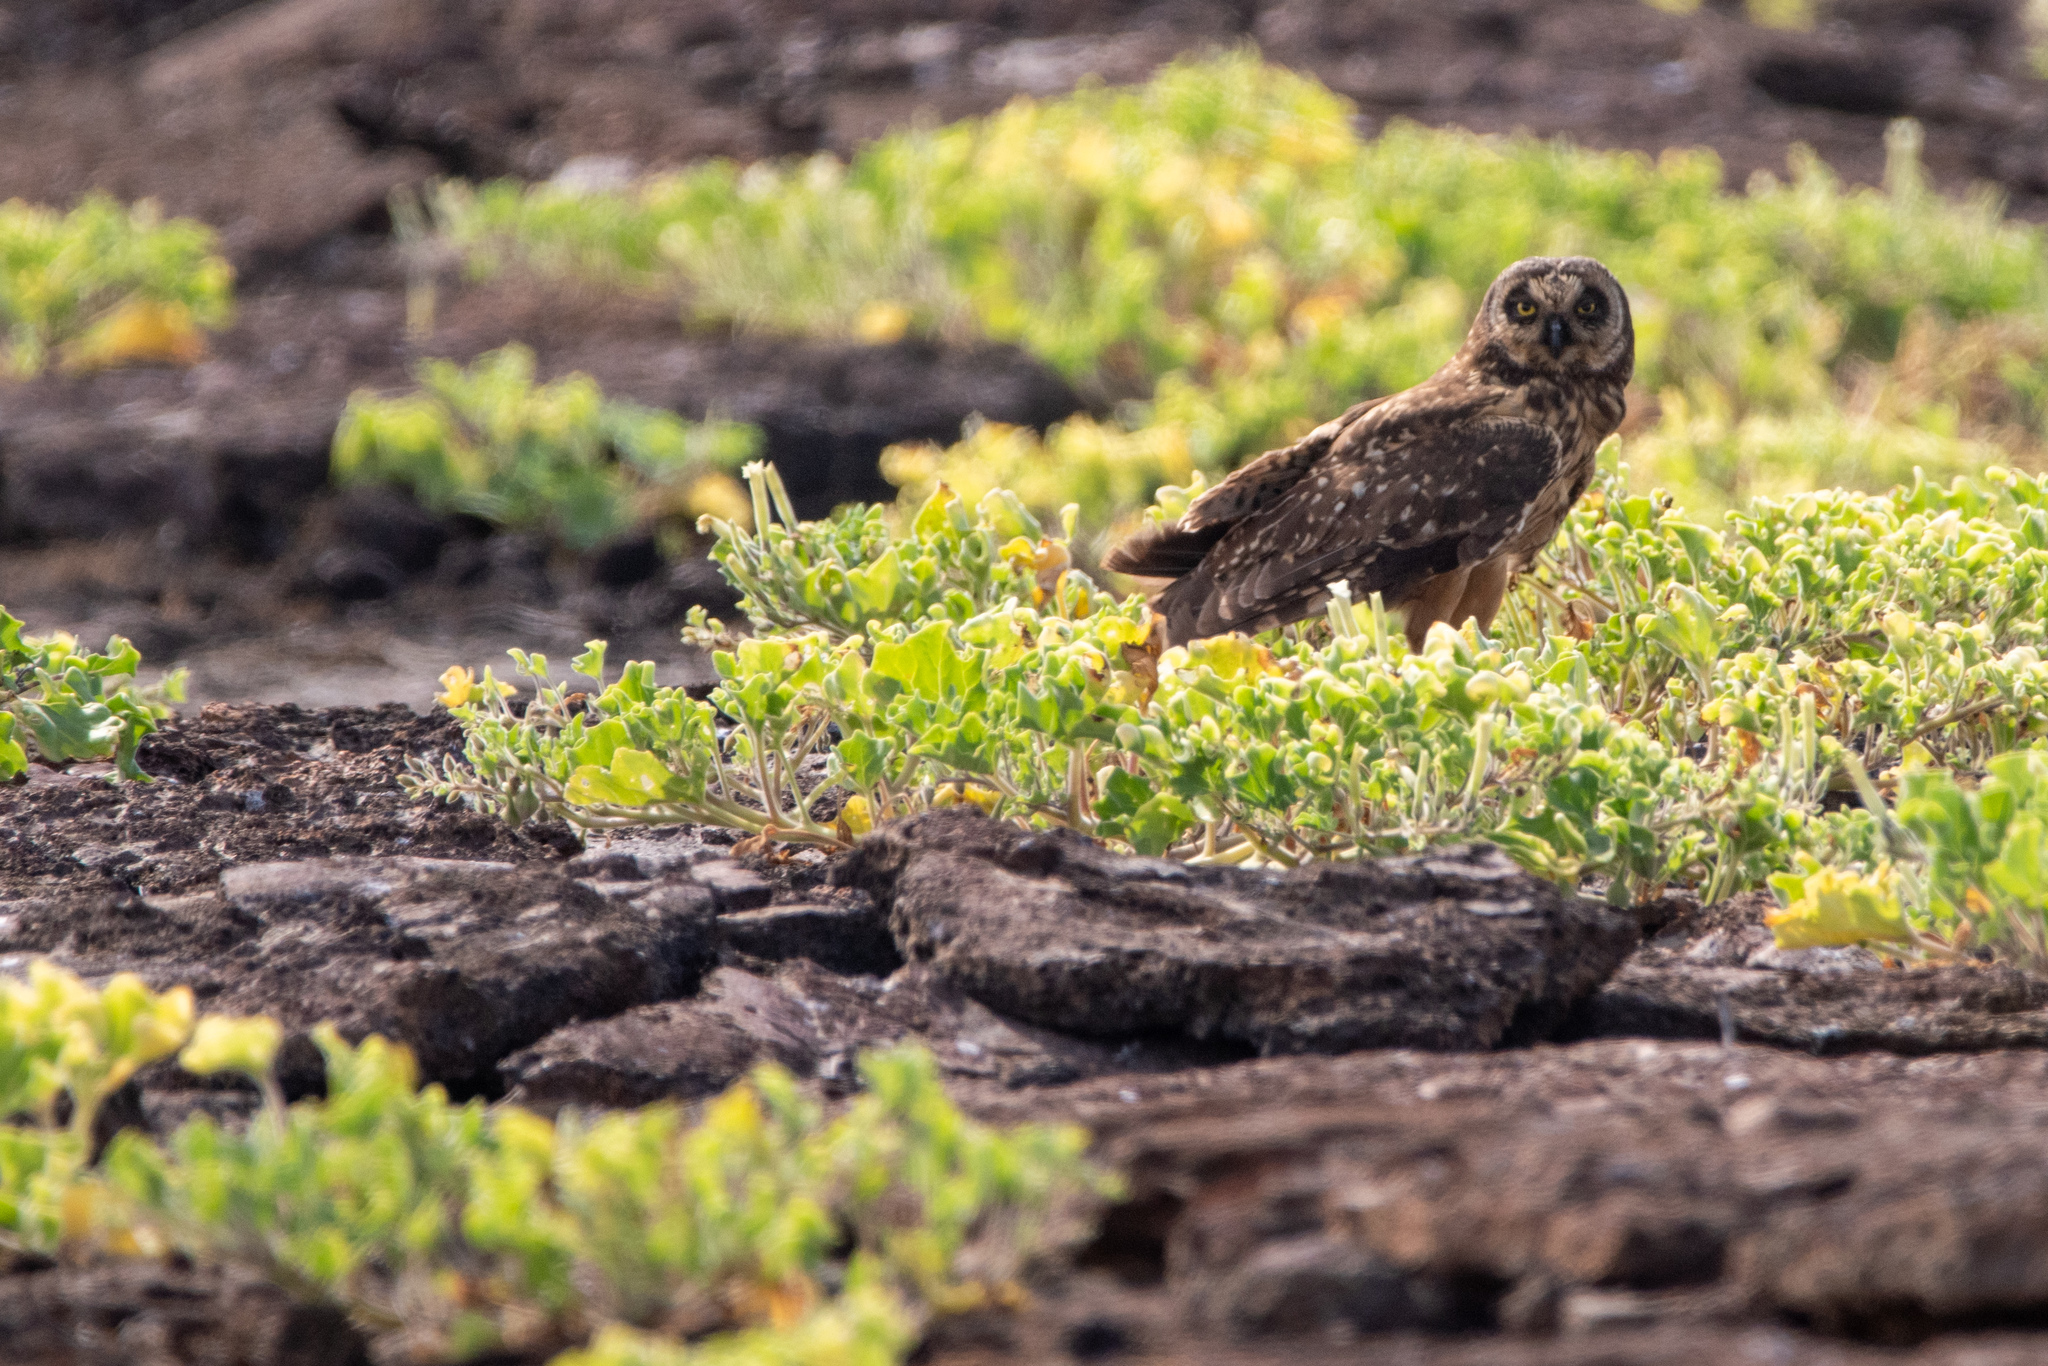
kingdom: Animalia
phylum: Chordata
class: Aves
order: Strigiformes
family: Strigidae
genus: Asio
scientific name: Asio flammeus
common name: Short-eared owl
